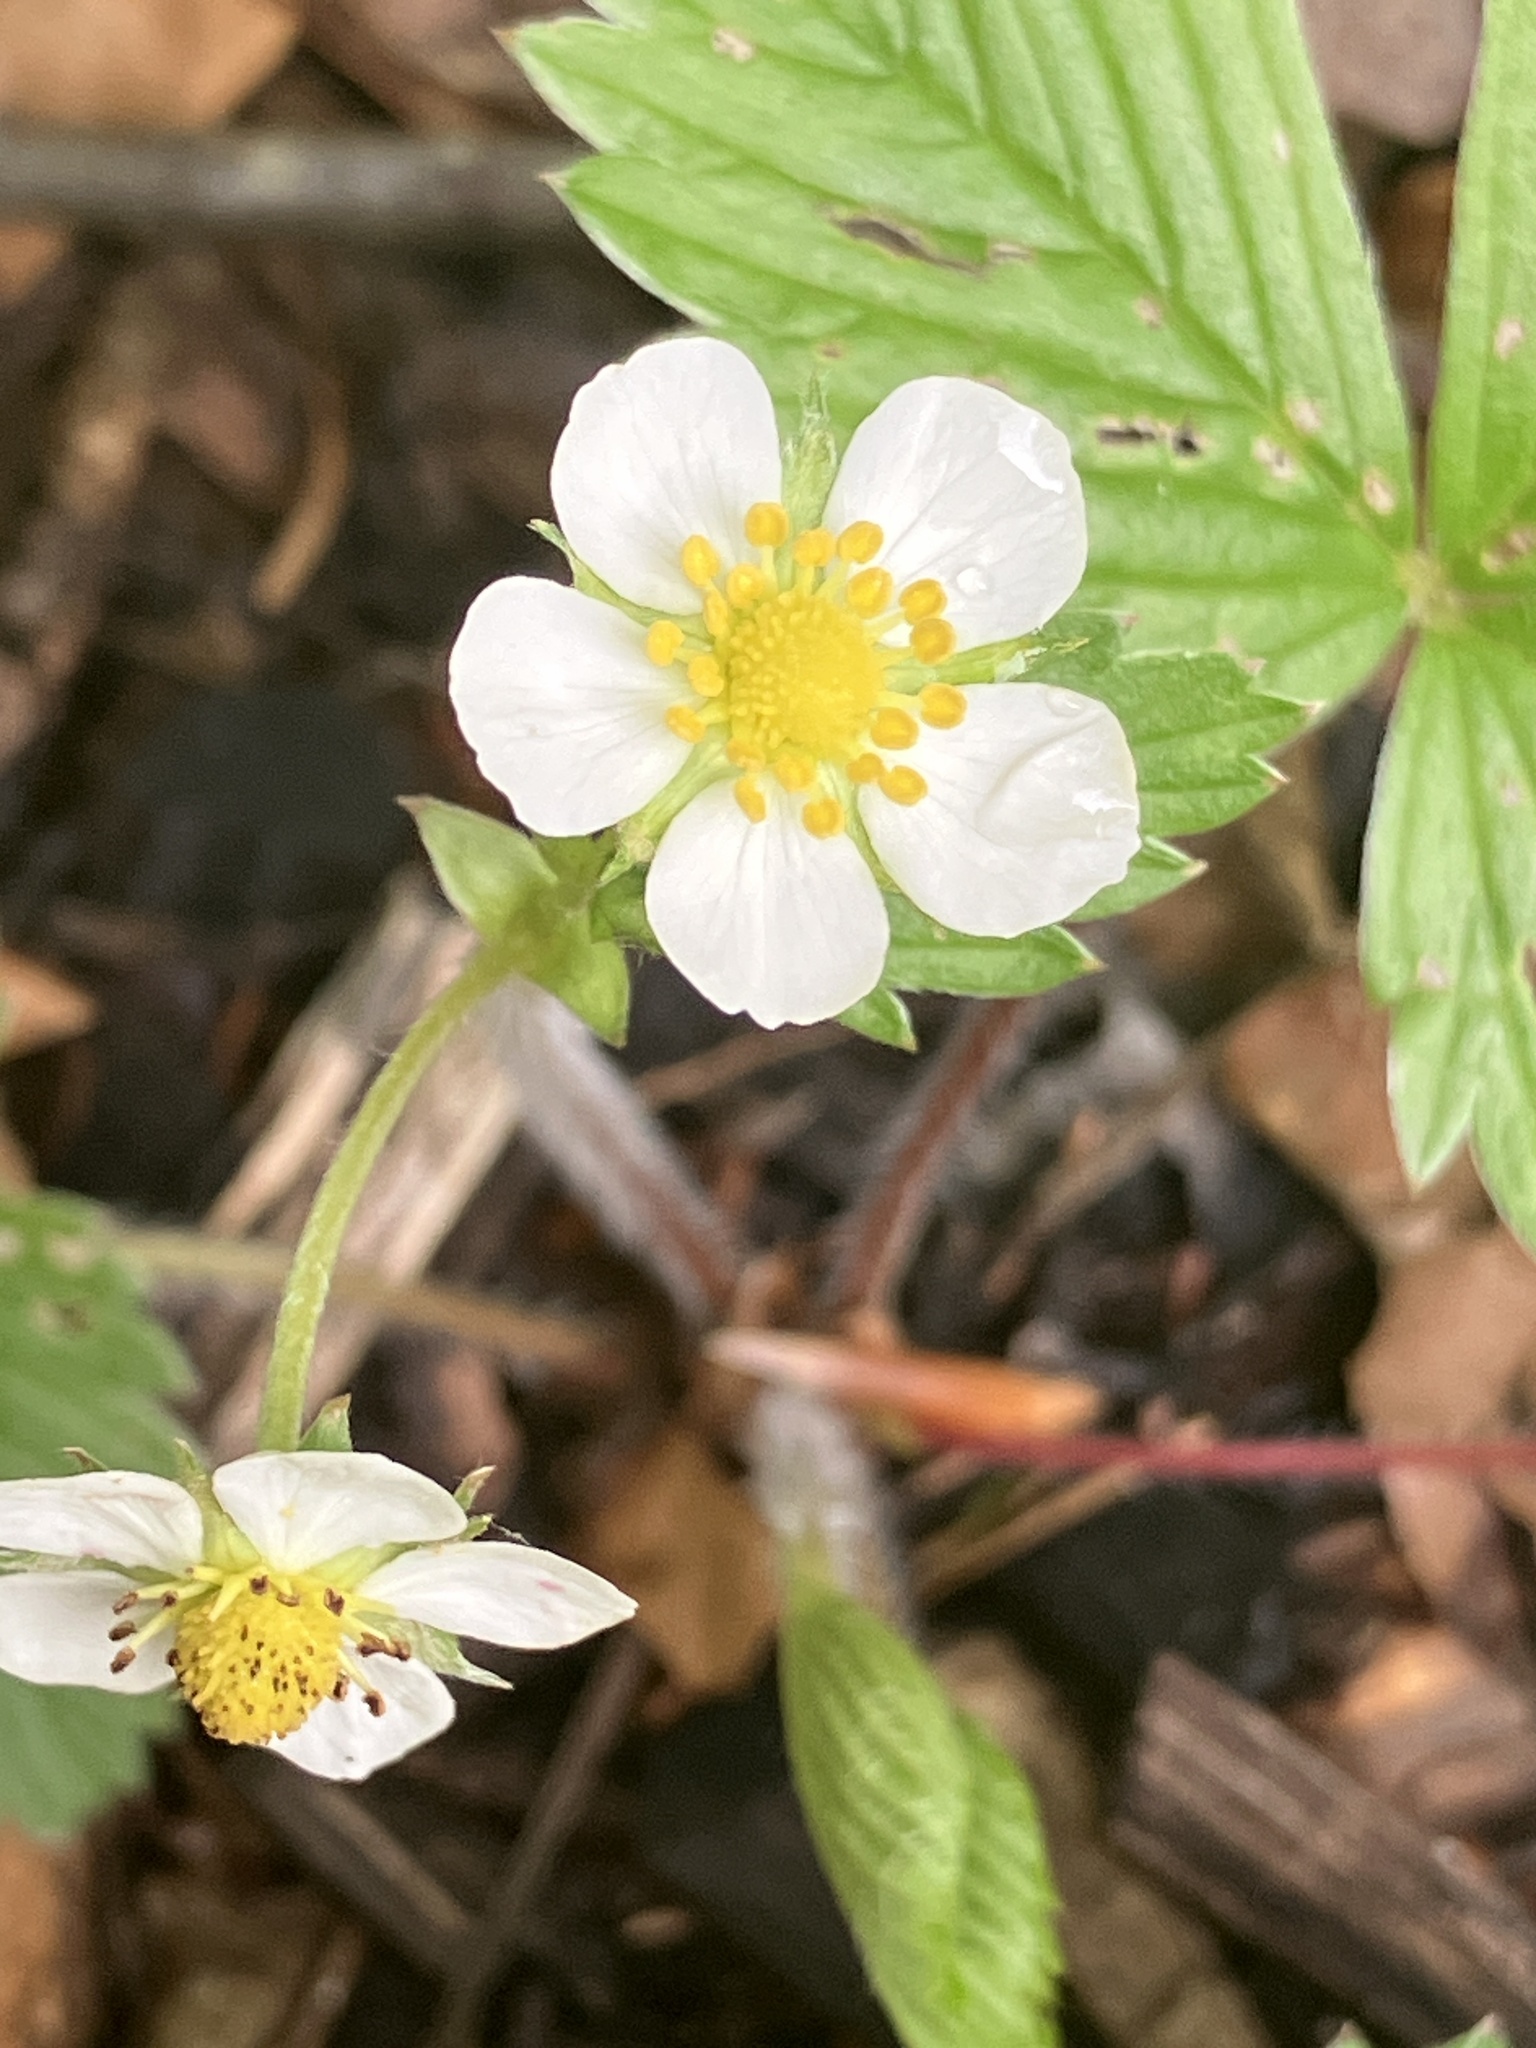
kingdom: Plantae
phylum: Tracheophyta
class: Magnoliopsida
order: Rosales
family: Rosaceae
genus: Fragaria
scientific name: Fragaria vesca
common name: Wild strawberry
